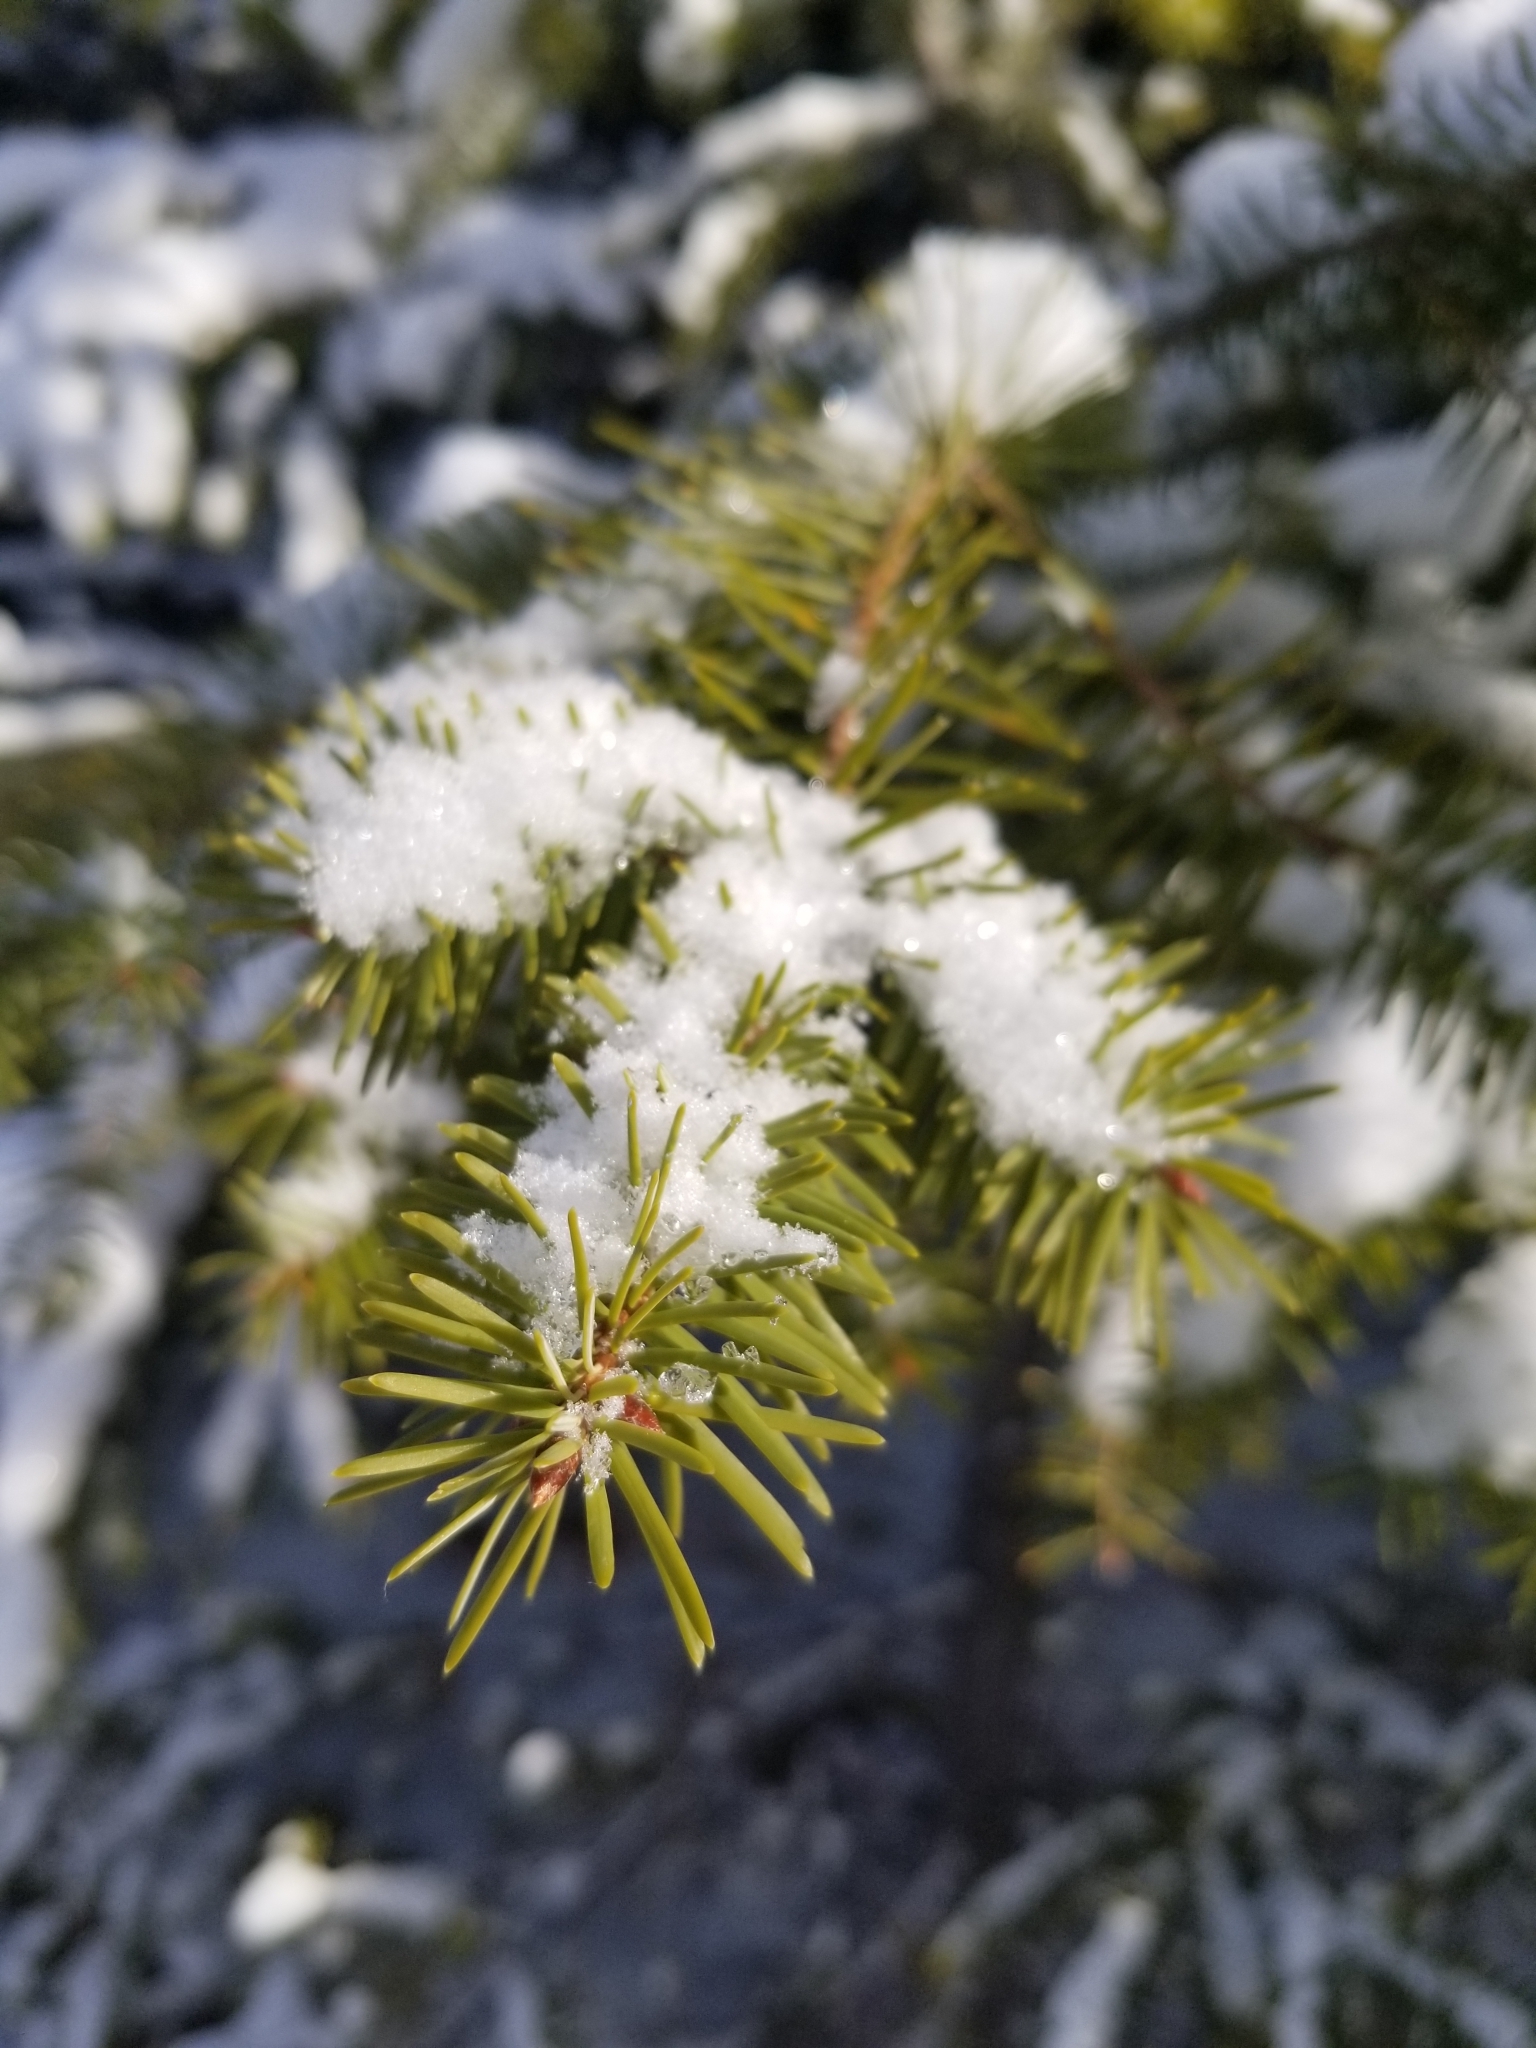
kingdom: Plantae
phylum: Tracheophyta
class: Pinopsida
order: Pinales
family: Pinaceae
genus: Pseudotsuga
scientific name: Pseudotsuga menziesii
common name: Douglas fir
